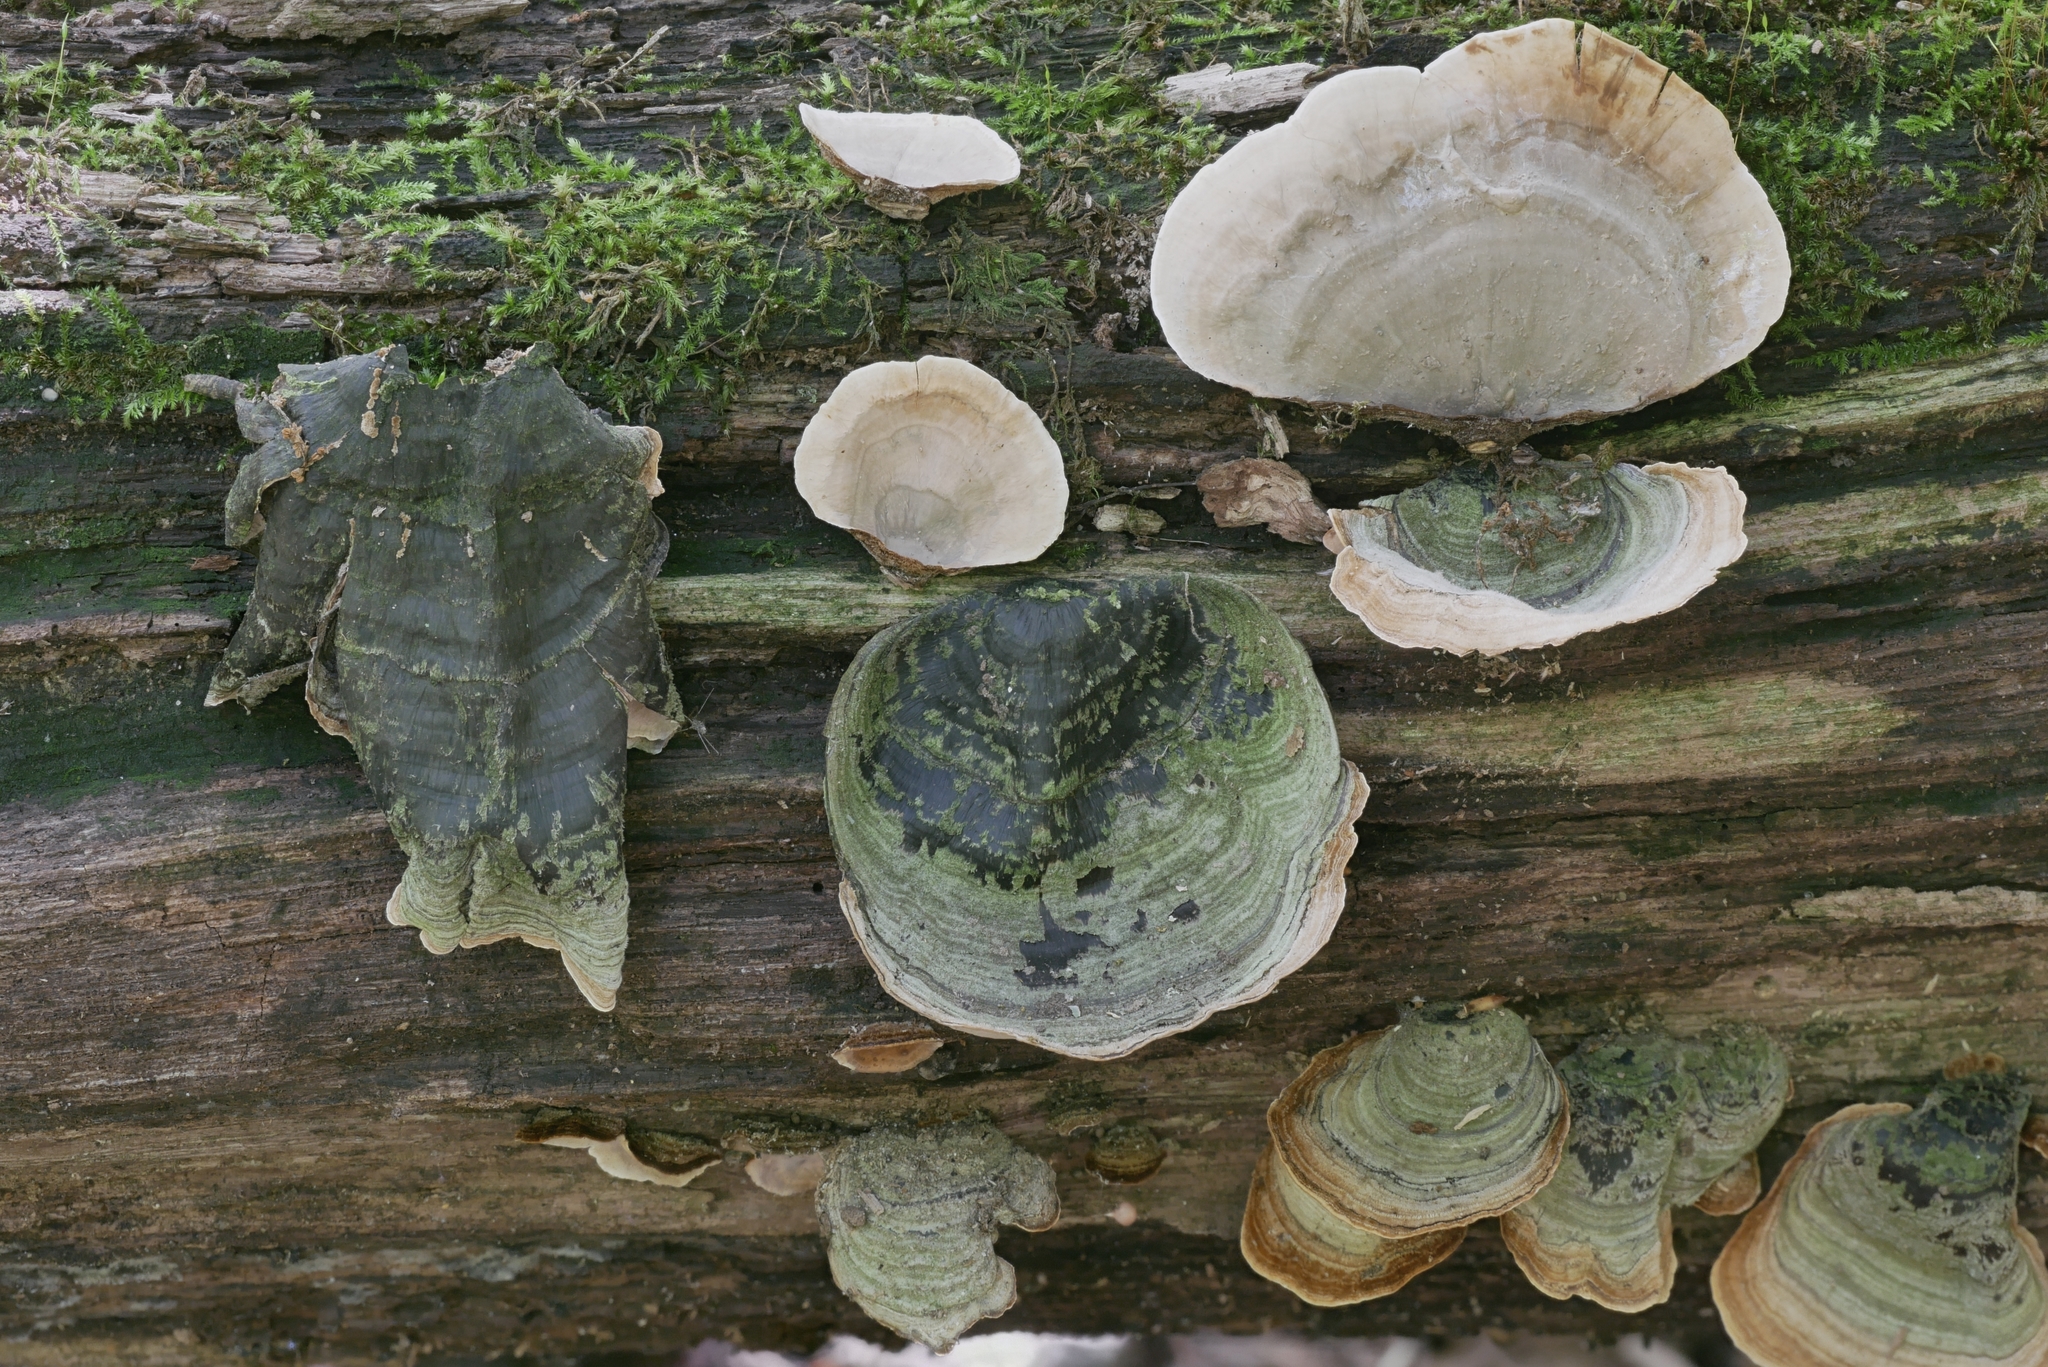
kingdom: Fungi
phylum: Basidiomycota
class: Agaricomycetes
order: Russulales
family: Stereaceae
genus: Stereum
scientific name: Stereum ostrea
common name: False turkeytail
